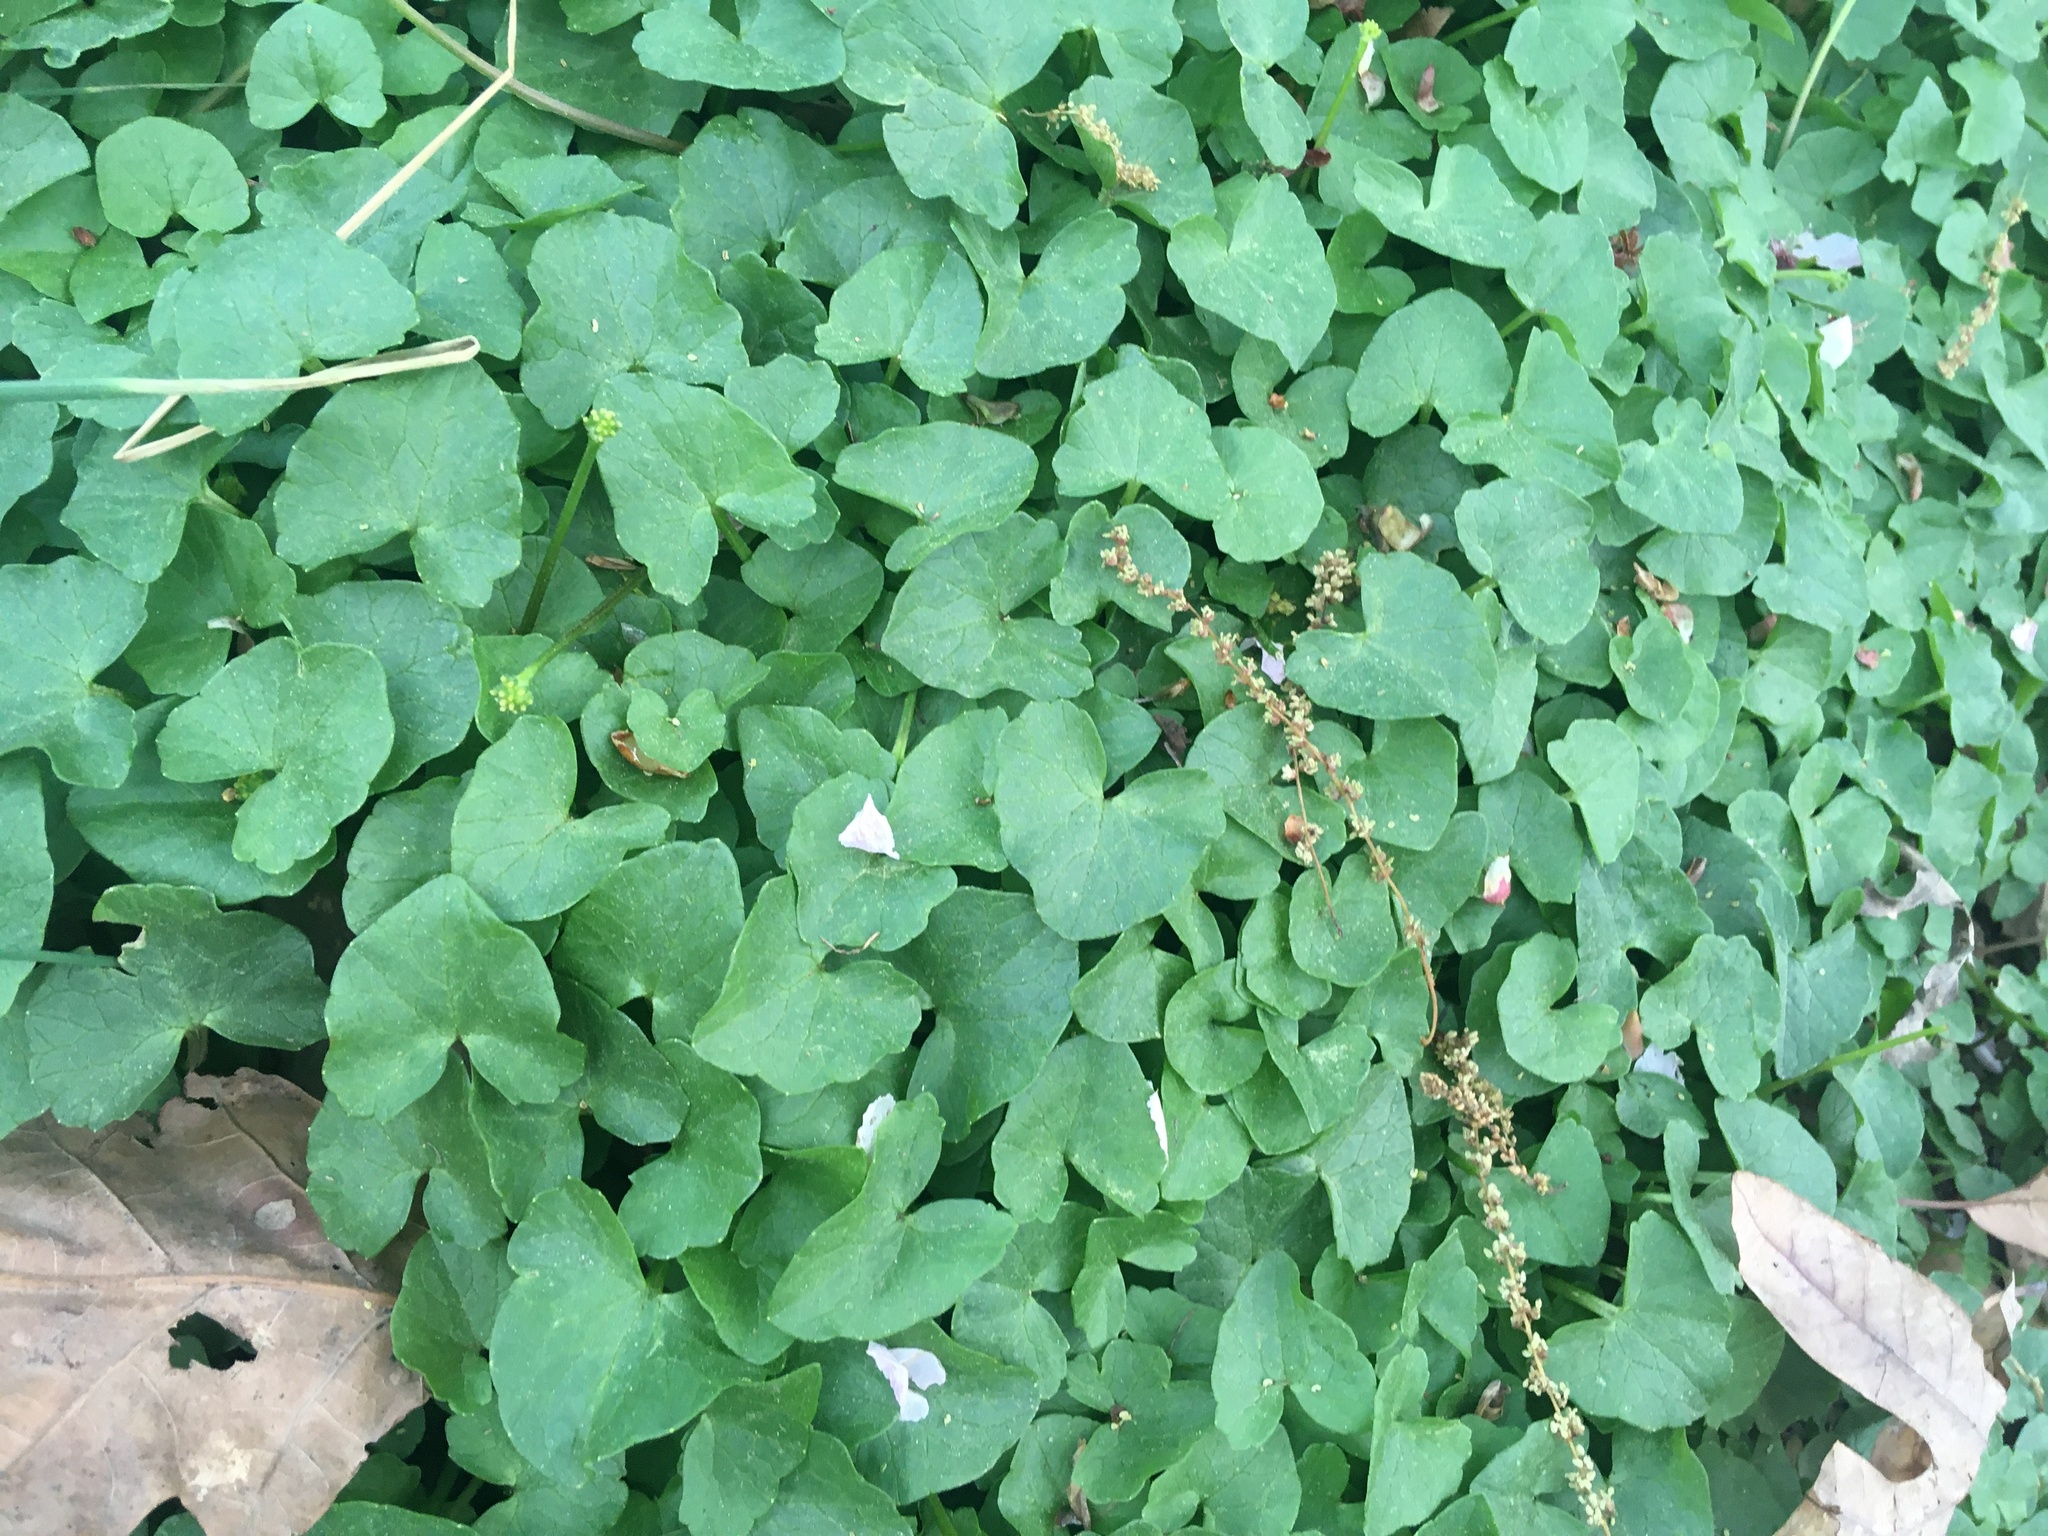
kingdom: Plantae
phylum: Tracheophyta
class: Magnoliopsida
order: Ranunculales
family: Ranunculaceae
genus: Ficaria
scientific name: Ficaria verna
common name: Lesser celandine
